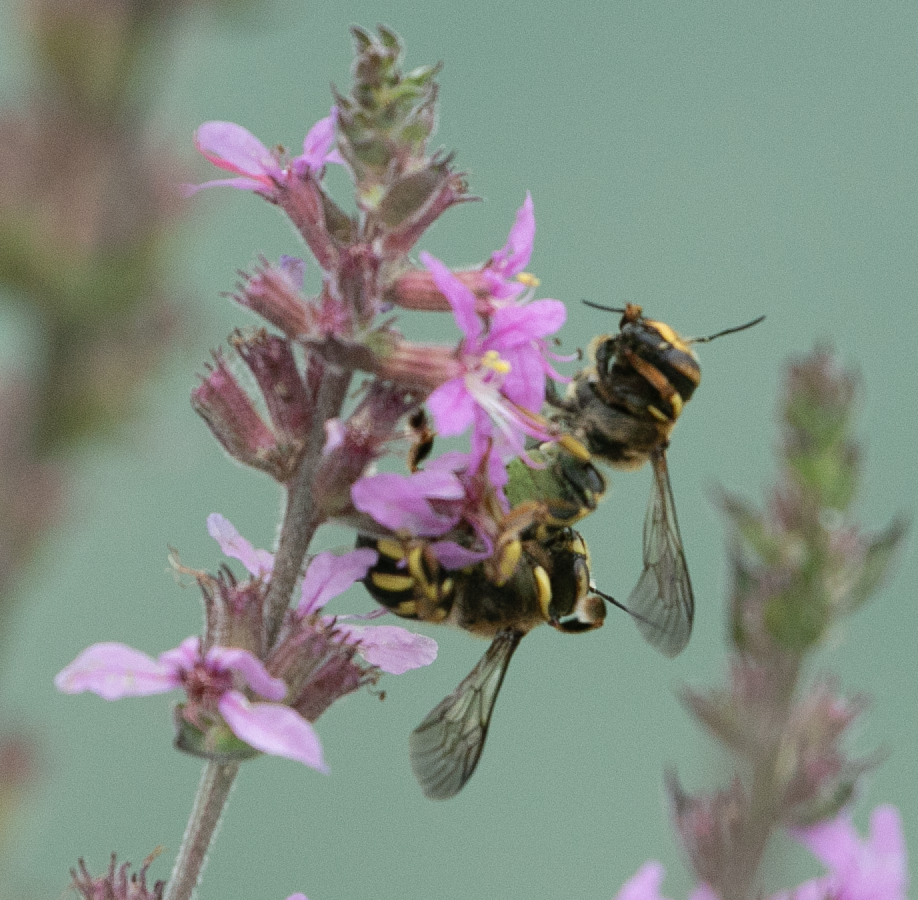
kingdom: Animalia
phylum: Arthropoda
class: Insecta
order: Hymenoptera
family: Megachilidae
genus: Anthidium
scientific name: Anthidium florentinum
